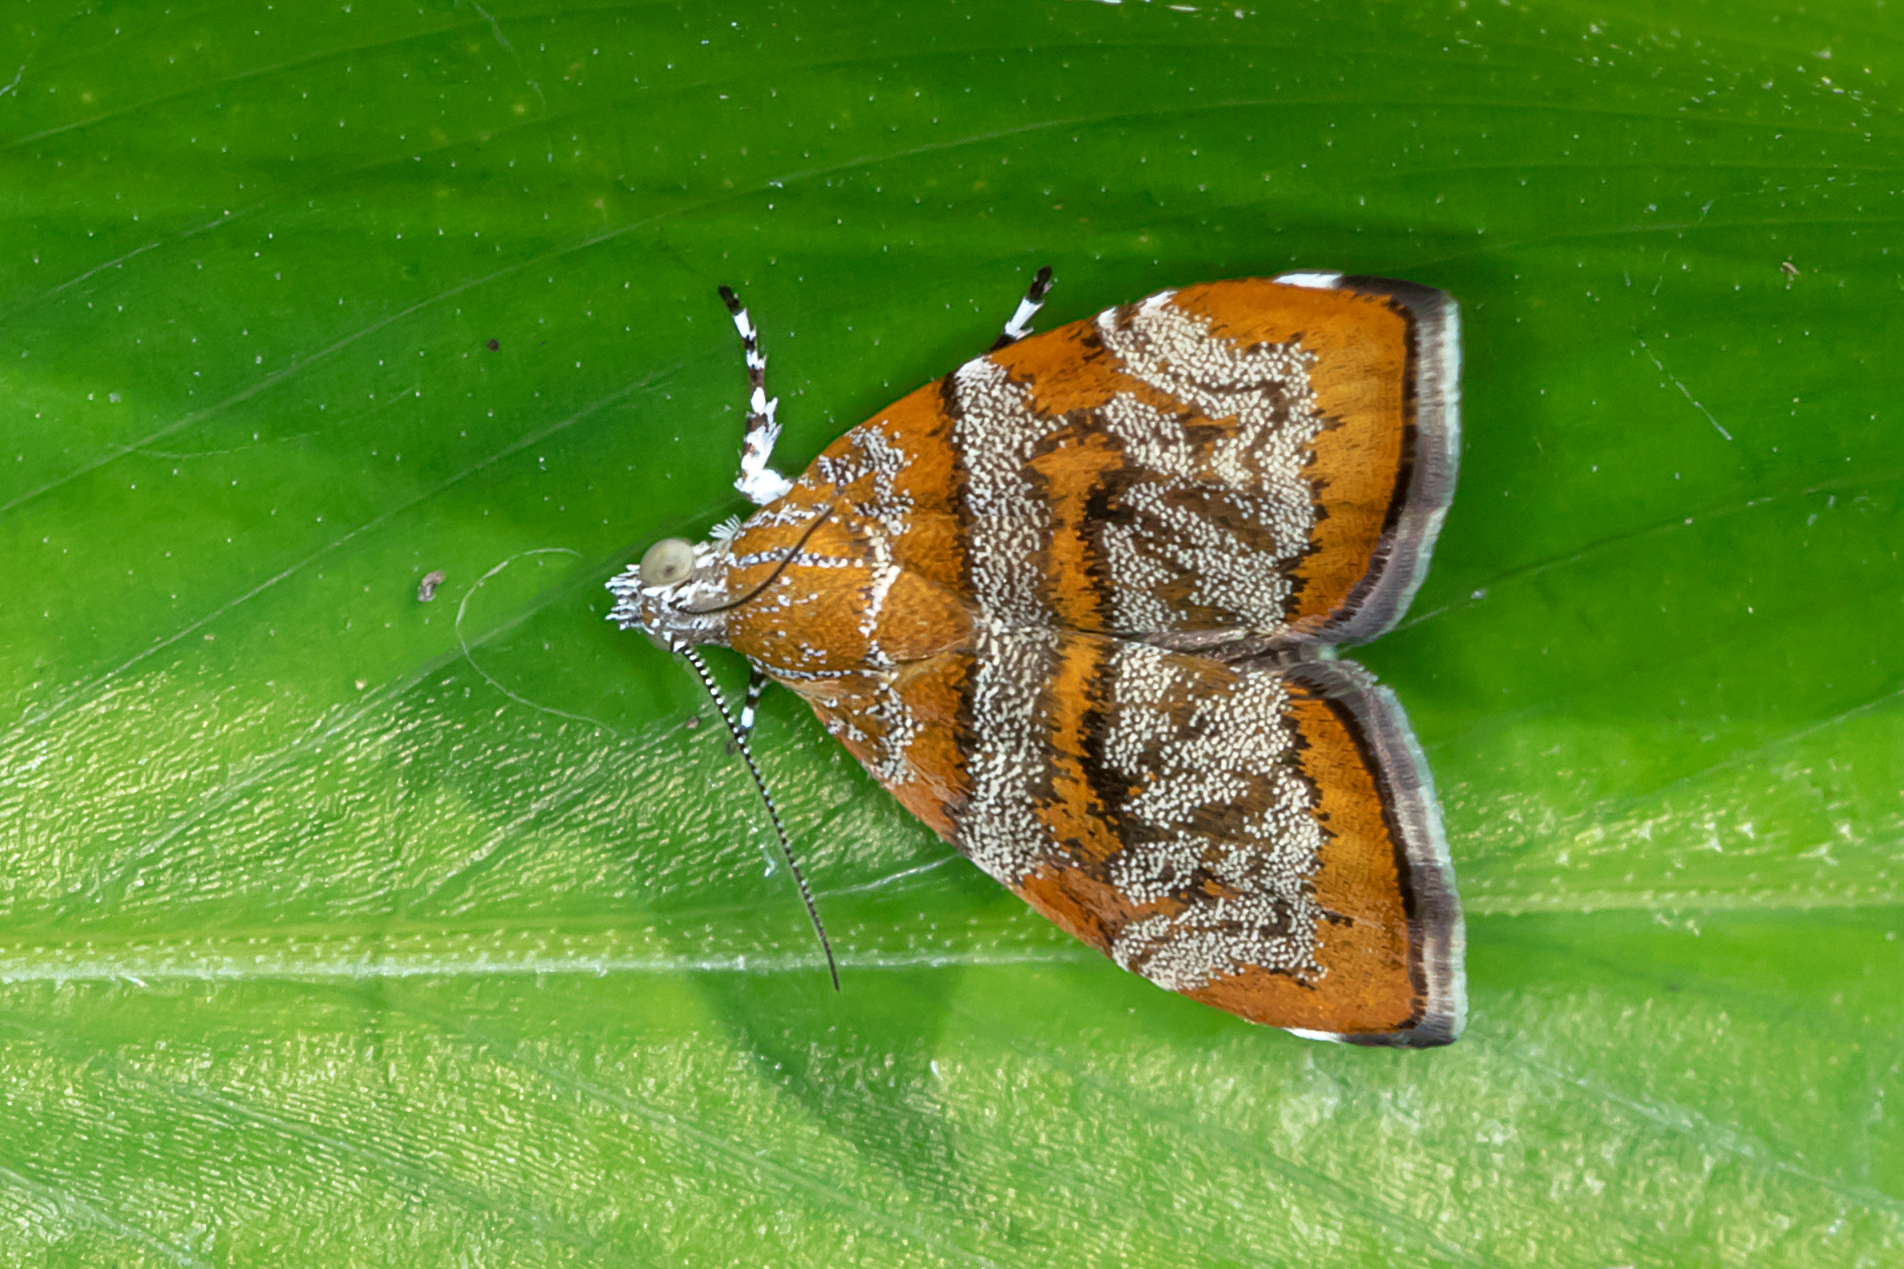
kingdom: Animalia
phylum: Arthropoda
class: Insecta
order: Lepidoptera
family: Choreutidae
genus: Choreutis
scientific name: Choreutis periploca
